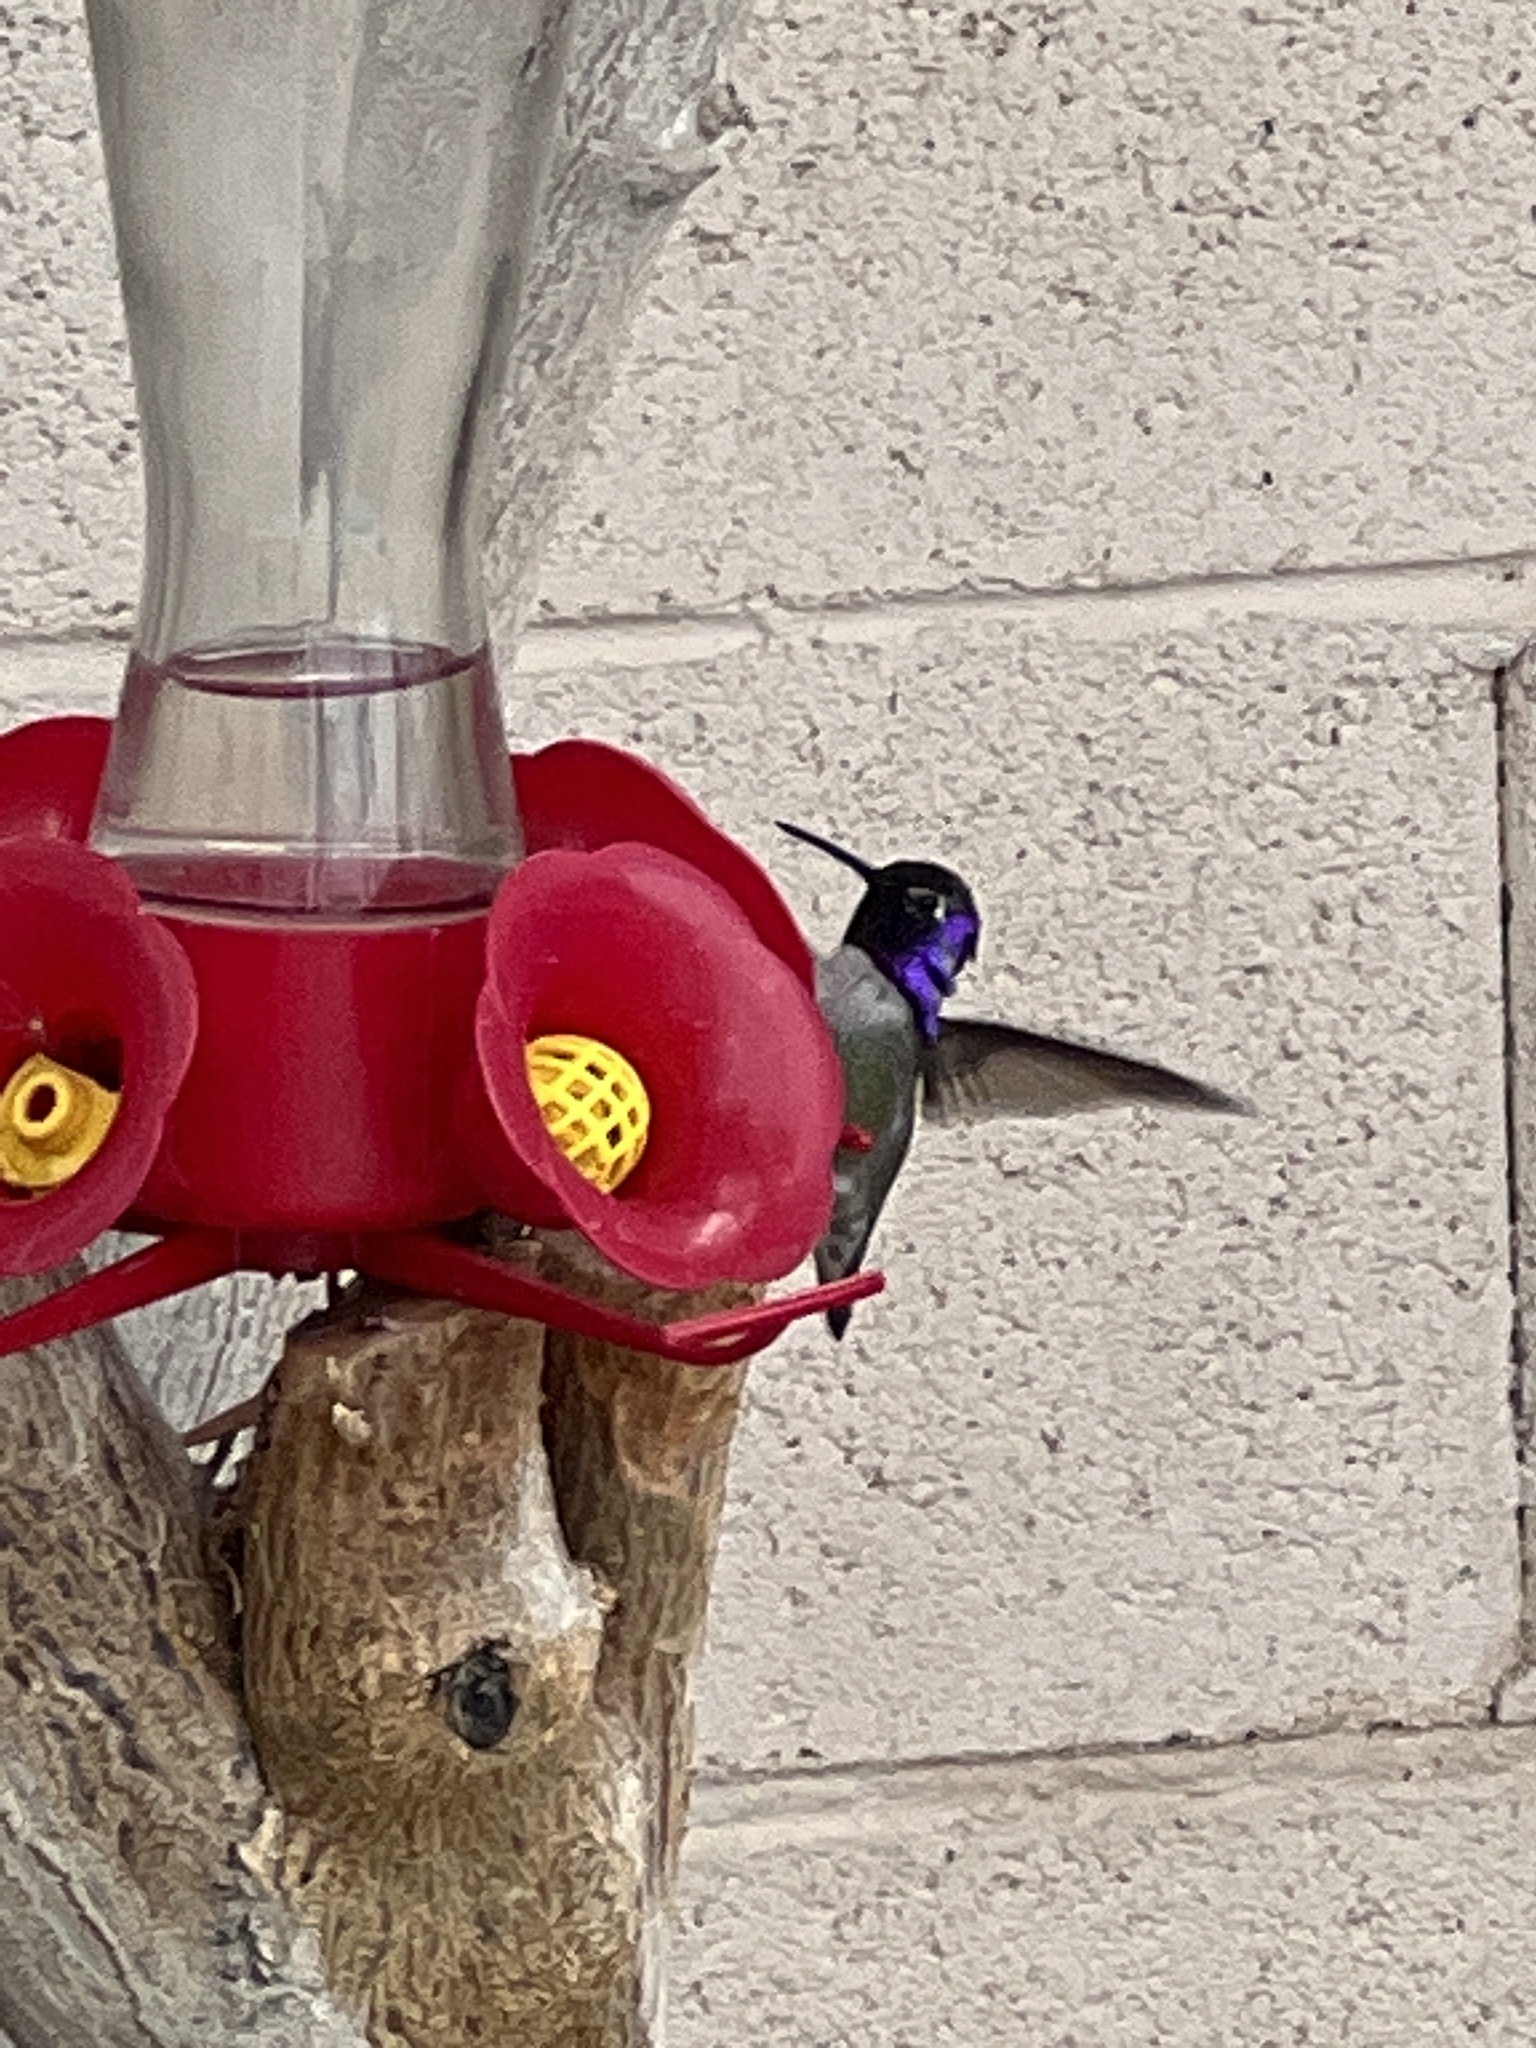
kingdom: Animalia
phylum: Chordata
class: Aves
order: Apodiformes
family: Trochilidae
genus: Calypte
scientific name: Calypte costae
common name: Costa's hummingbird
